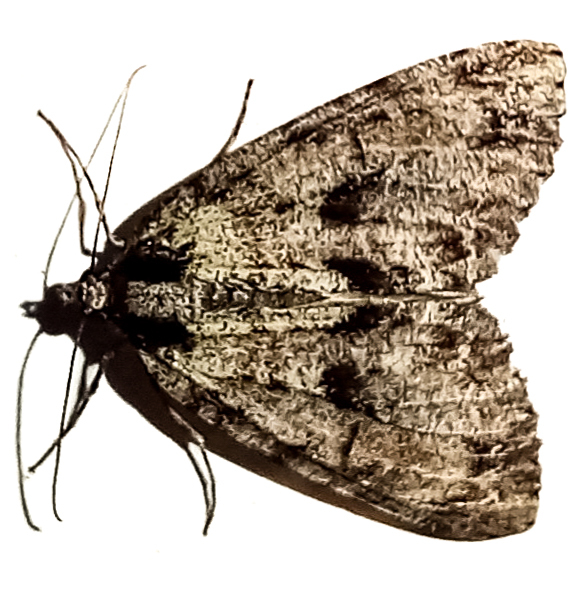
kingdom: Animalia
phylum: Arthropoda
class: Insecta
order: Lepidoptera
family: Geometridae
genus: Pseudocoremia
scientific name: Pseudocoremia suavis
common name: Common forest looper
